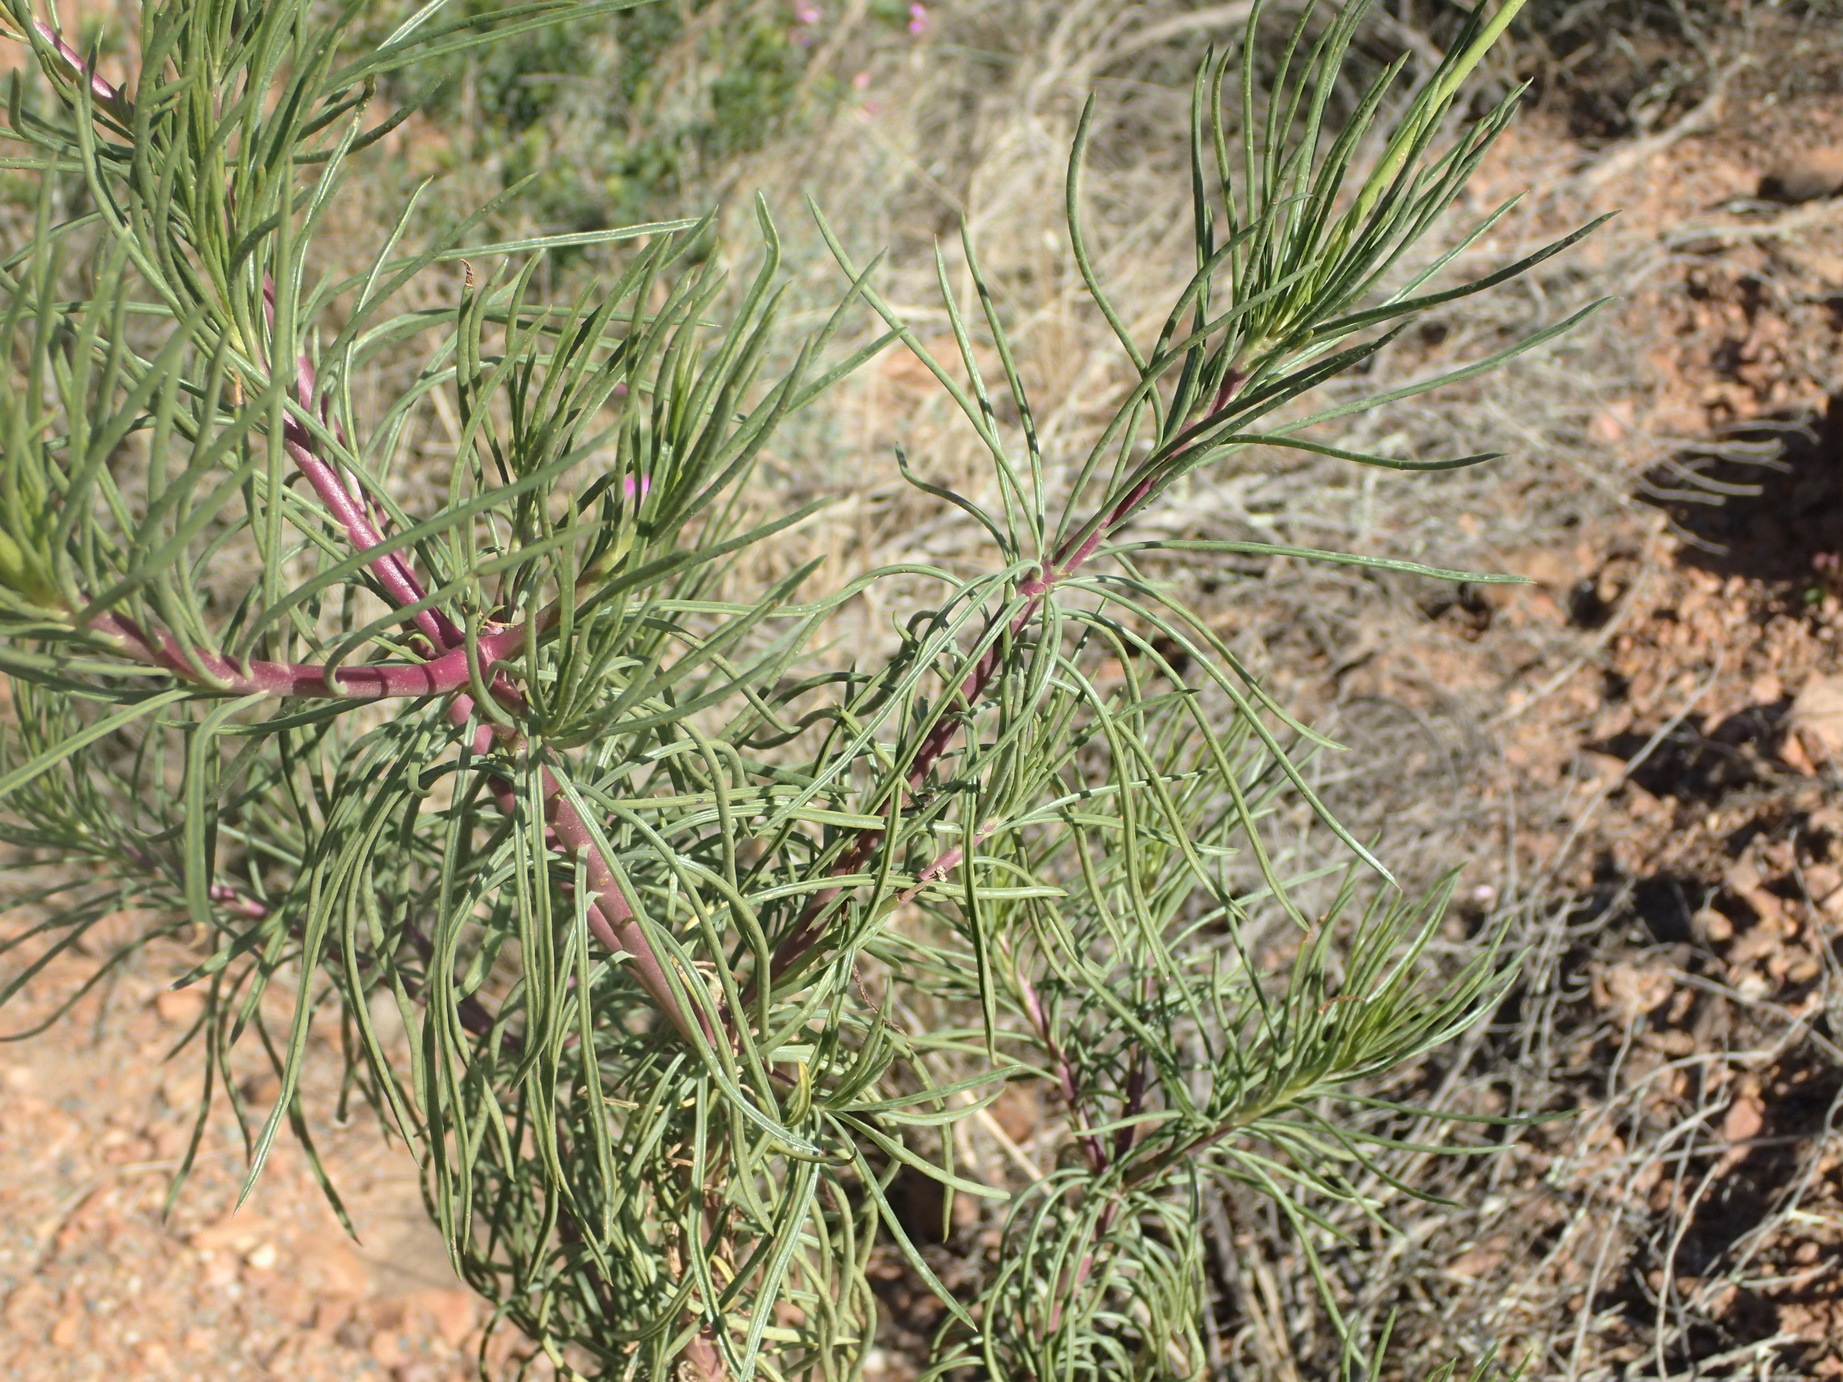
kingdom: Plantae
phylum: Tracheophyta
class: Magnoliopsida
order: Asterales
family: Asteraceae
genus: Senecio
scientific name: Senecio linifolius
